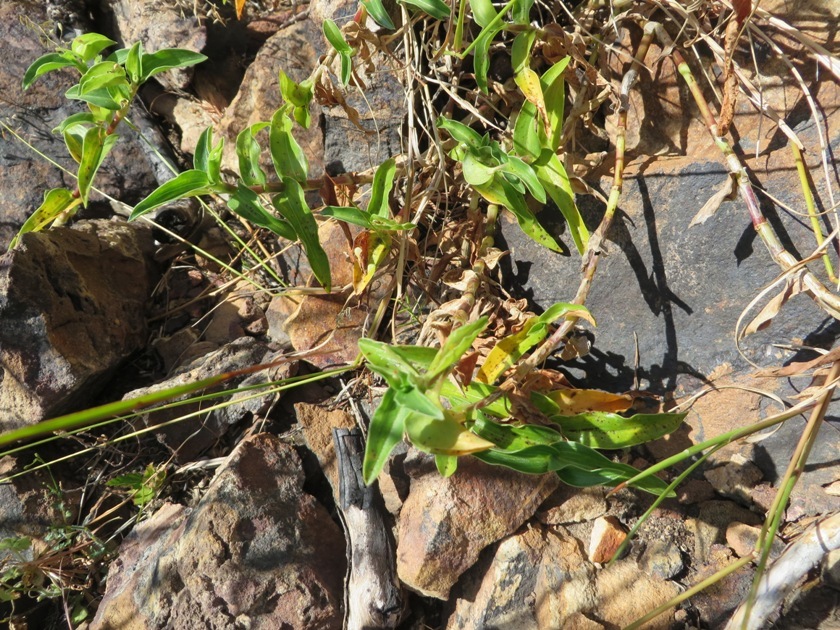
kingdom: Plantae
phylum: Tracheophyta
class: Liliopsida
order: Commelinales
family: Commelinaceae
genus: Commelina
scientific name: Commelina africana
